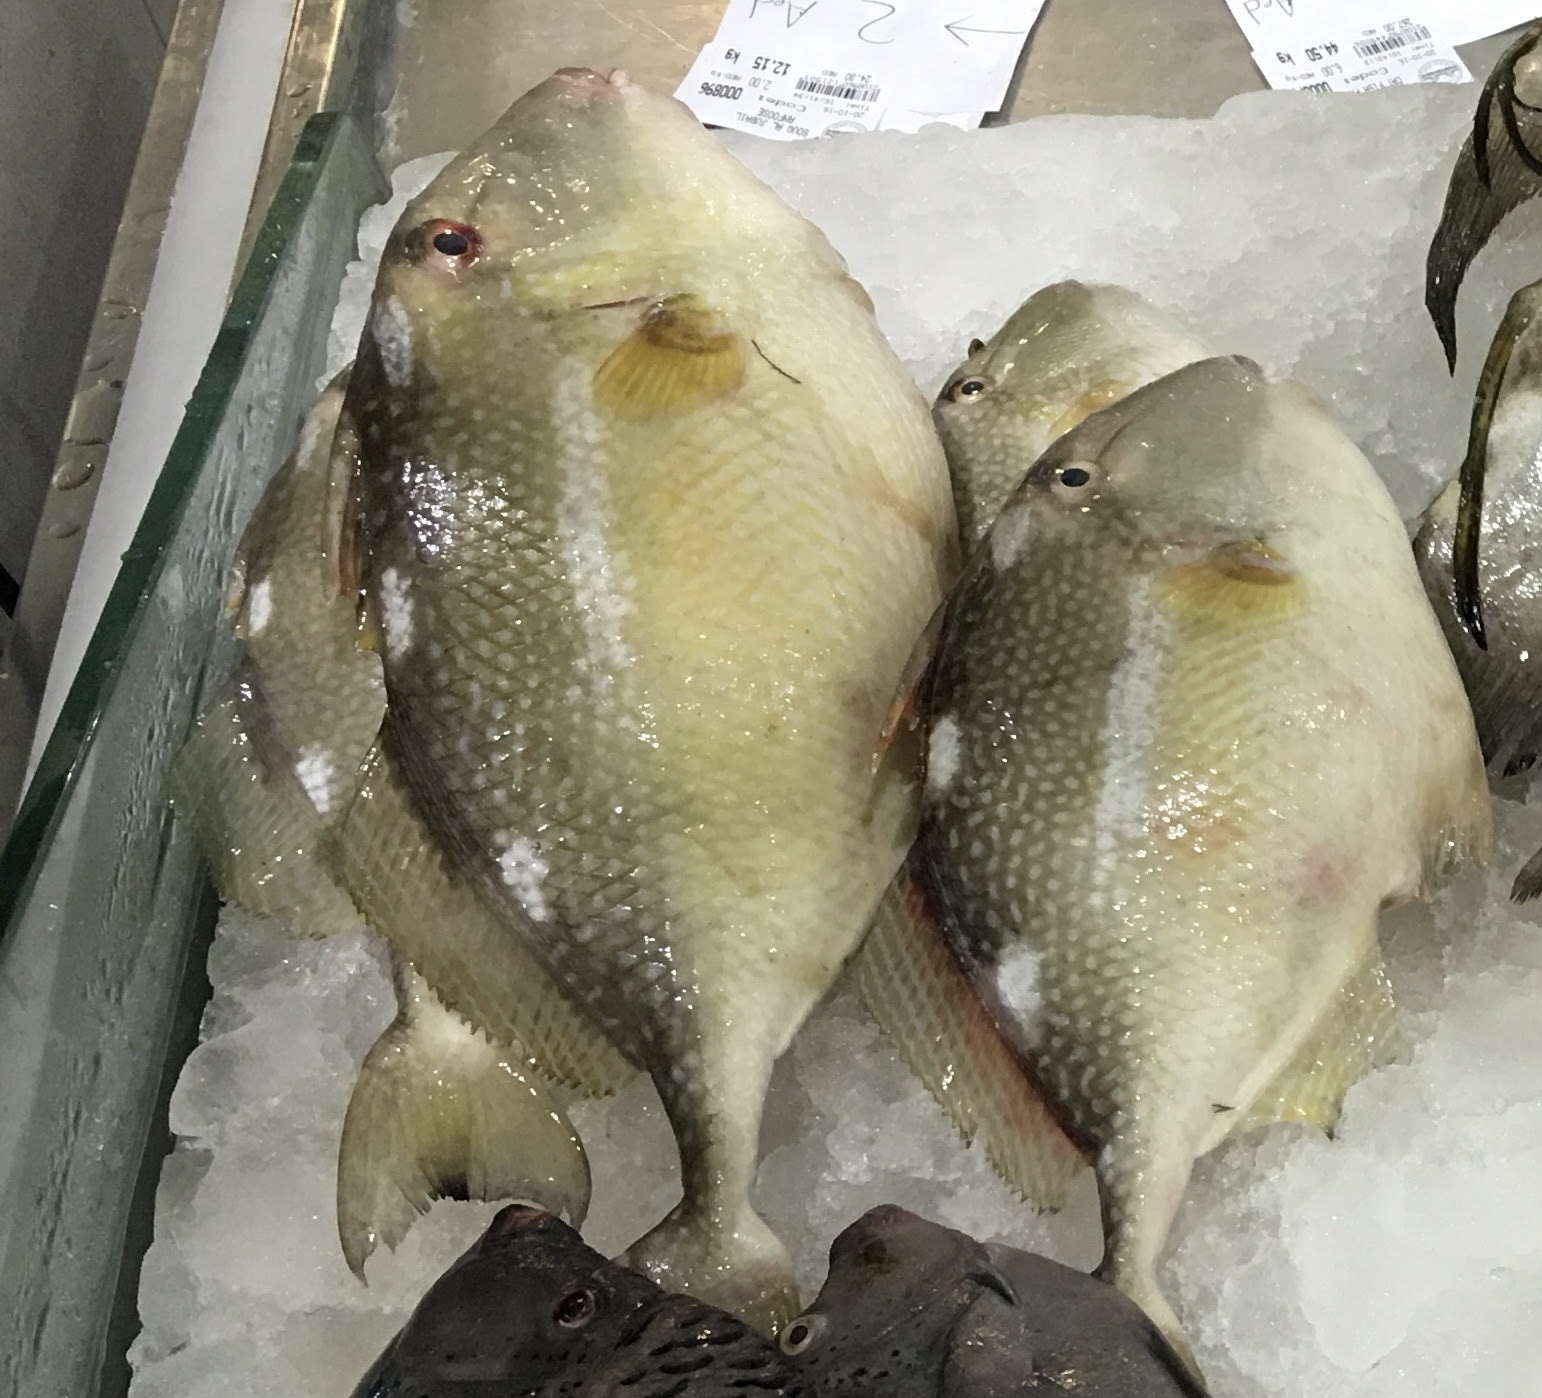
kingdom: Animalia
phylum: Chordata
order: Tetraodontiformes
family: Balistidae
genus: Abalistes
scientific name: Abalistes stellatus
